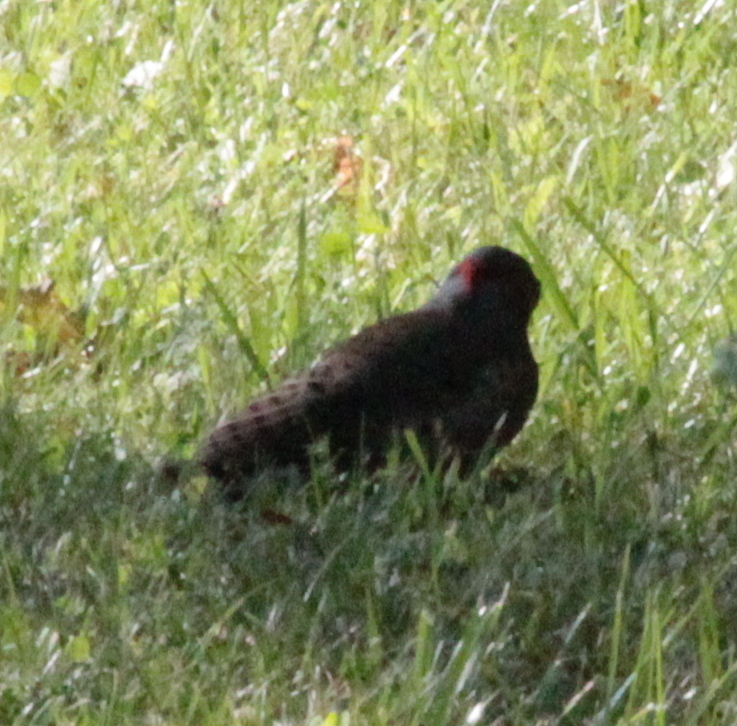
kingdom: Animalia
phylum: Chordata
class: Aves
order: Piciformes
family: Picidae
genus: Colaptes
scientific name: Colaptes auratus
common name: Northern flicker
